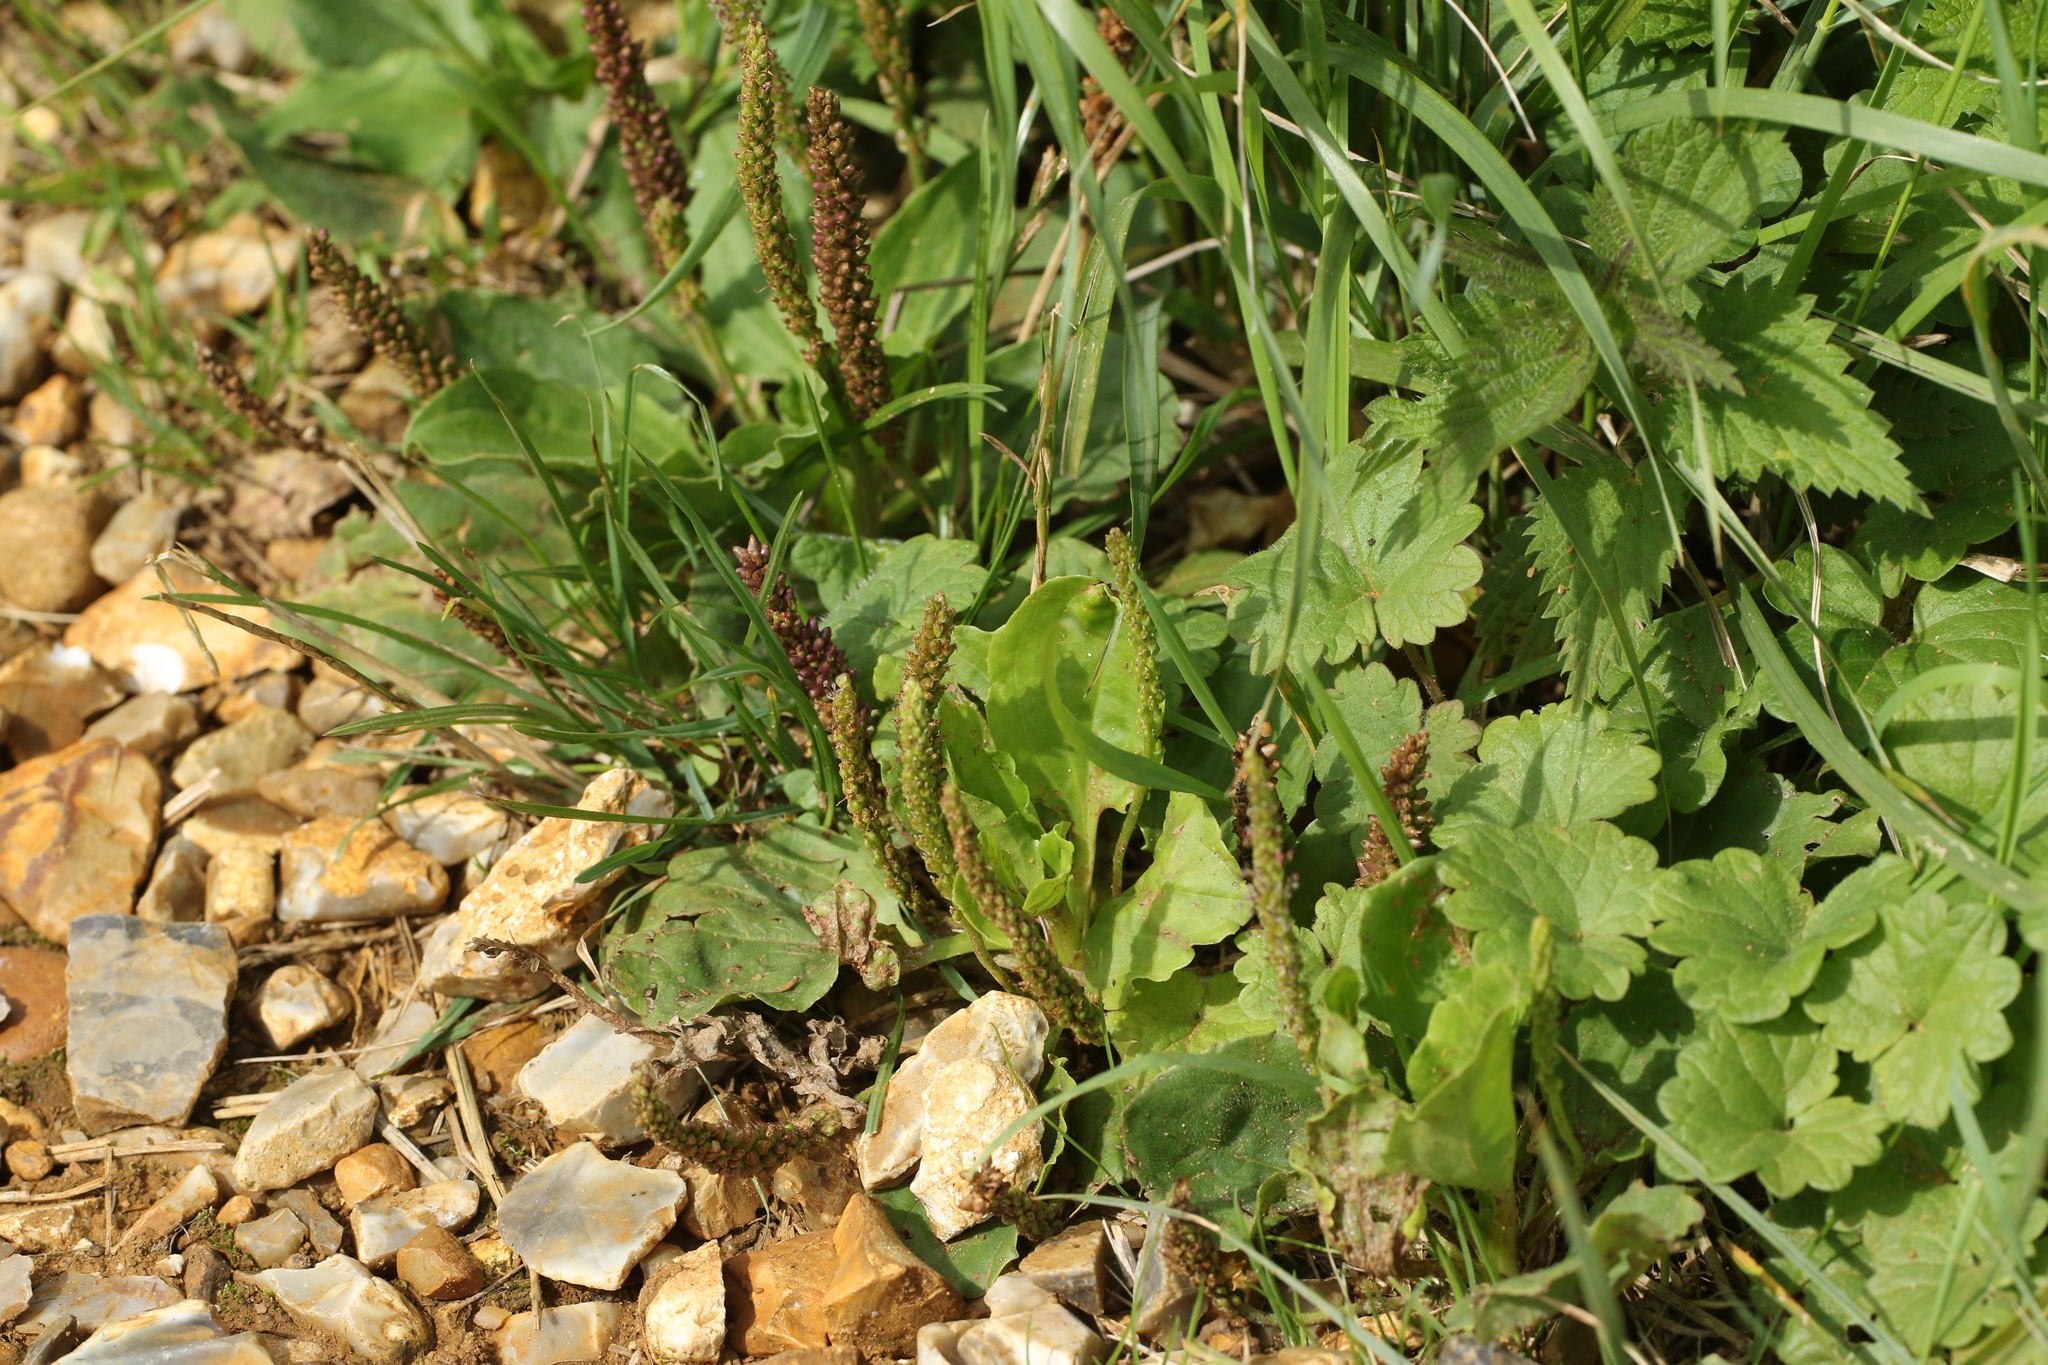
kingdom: Plantae
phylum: Tracheophyta
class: Magnoliopsida
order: Lamiales
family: Plantaginaceae
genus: Plantago
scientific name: Plantago major
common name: Common plantain
